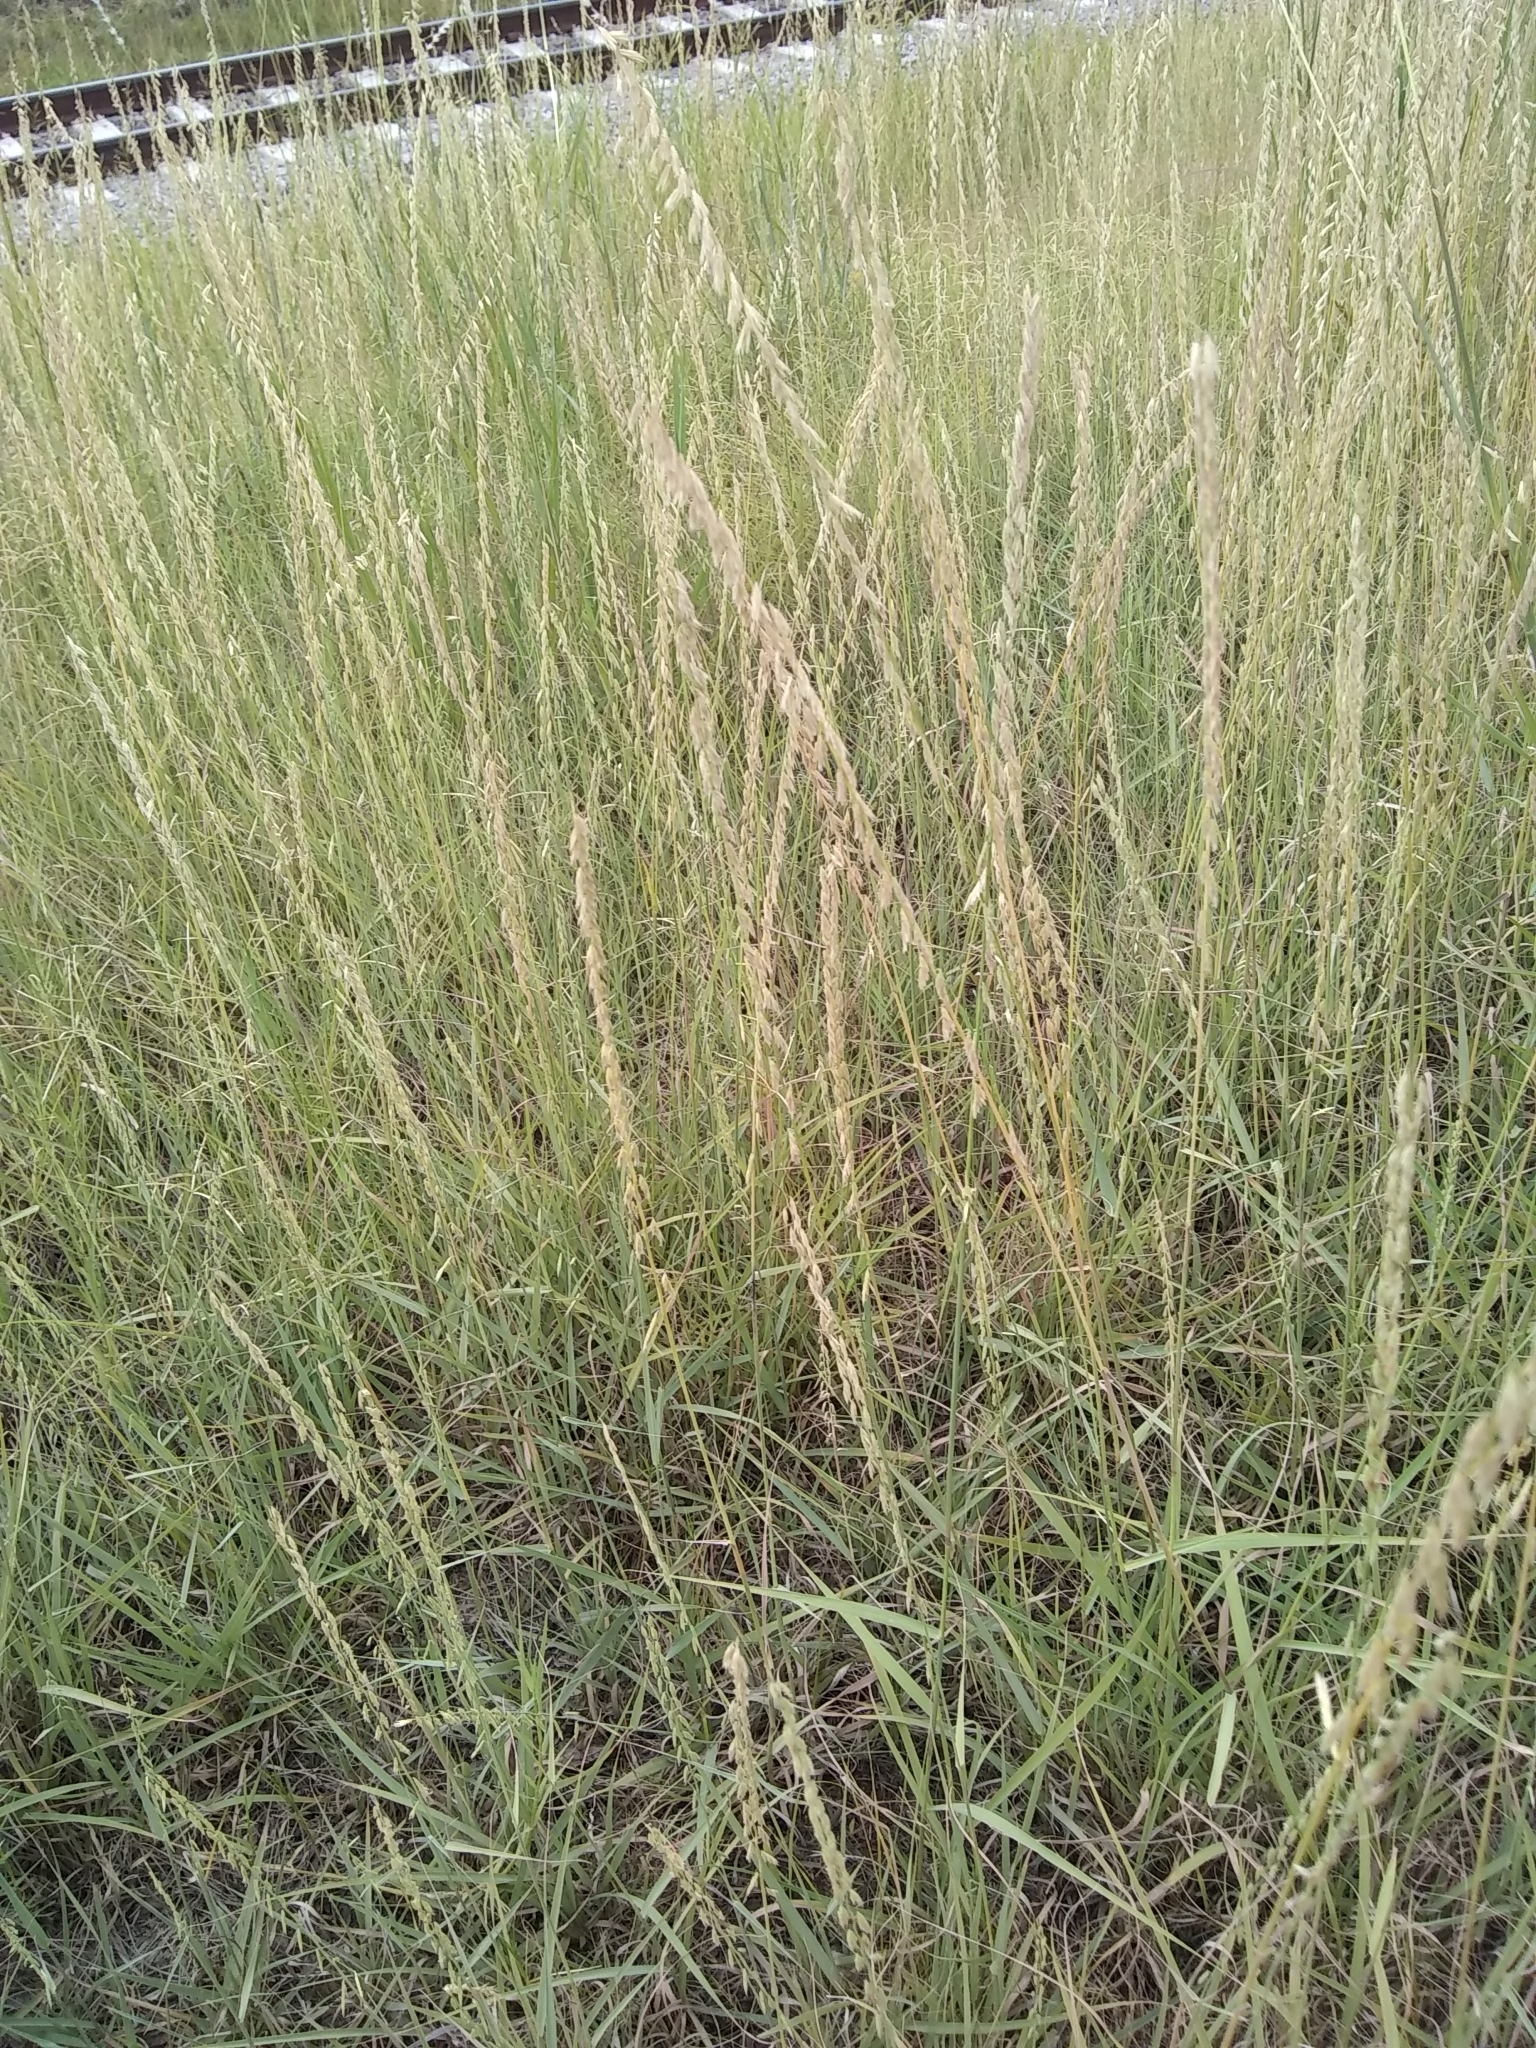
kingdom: Plantae
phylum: Tracheophyta
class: Liliopsida
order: Poales
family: Poaceae
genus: Bouteloua
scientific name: Bouteloua curtipendula
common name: Side-oats grama
